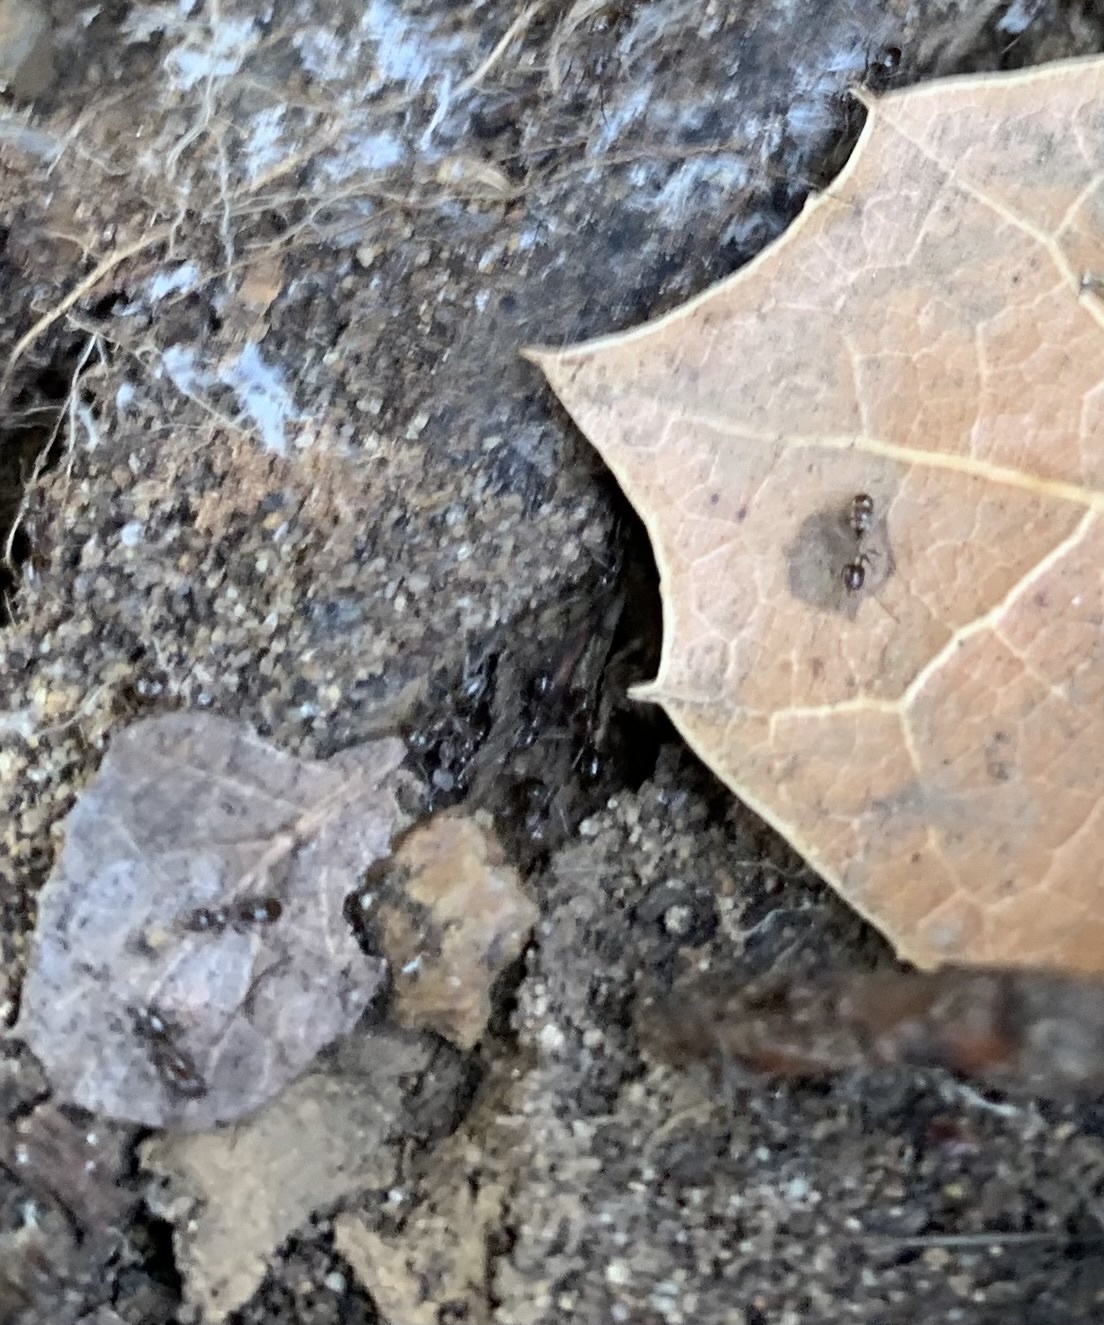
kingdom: Animalia
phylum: Arthropoda
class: Insecta
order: Hymenoptera
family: Formicidae
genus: Linepithema
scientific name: Linepithema humile
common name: Argentine ant
